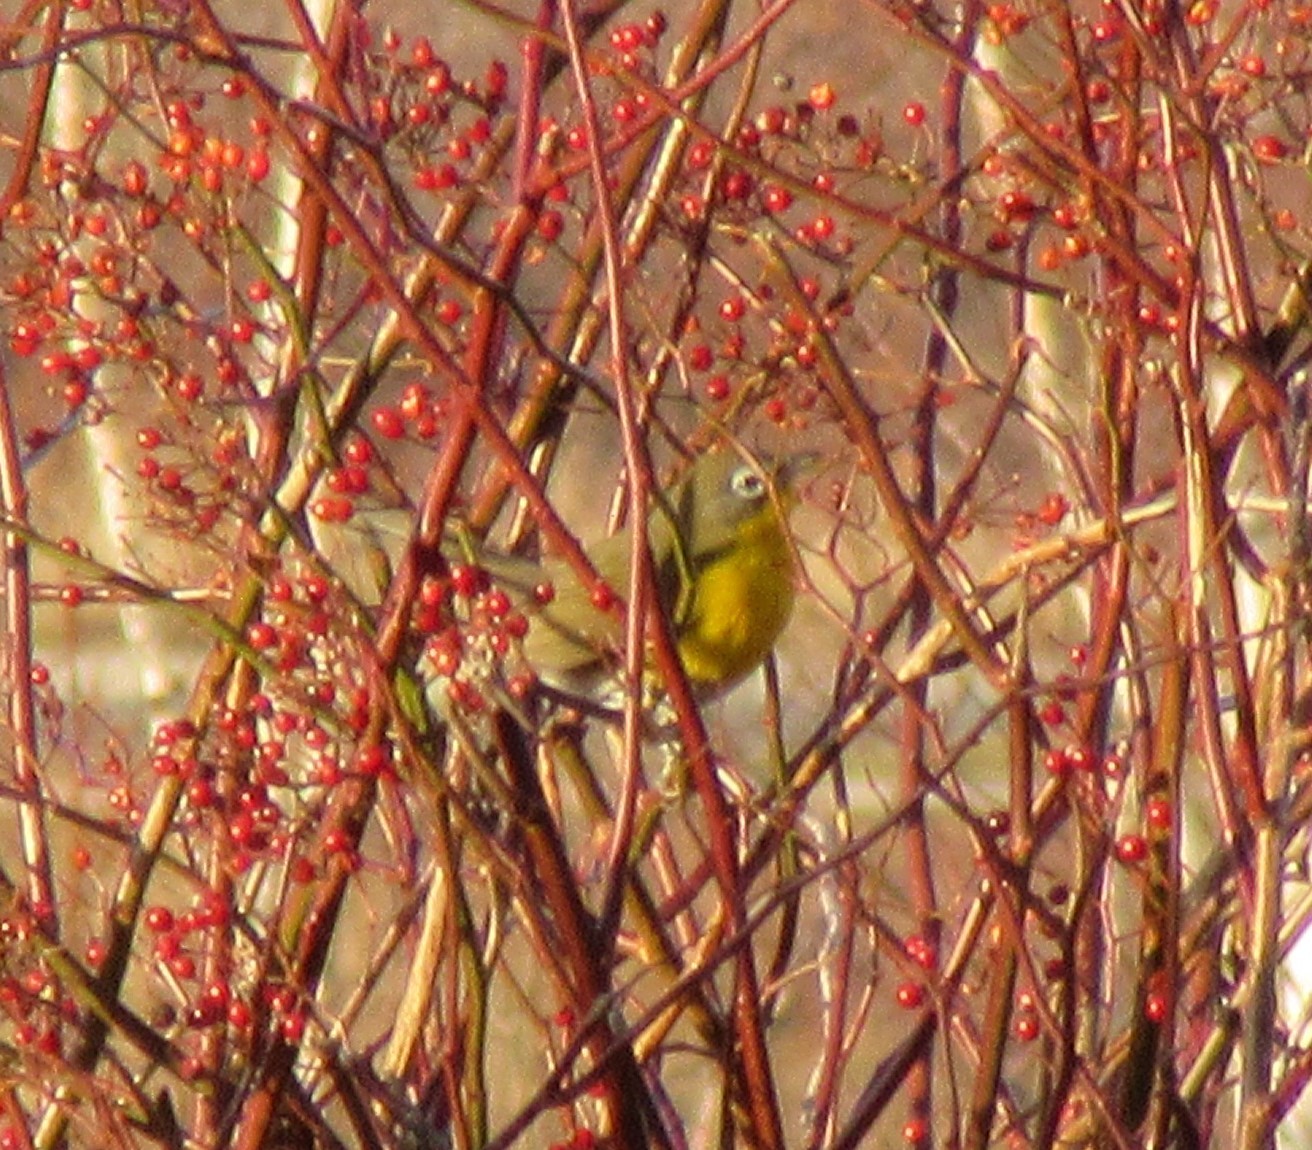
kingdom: Animalia
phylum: Chordata
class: Aves
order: Passeriformes
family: Parulidae
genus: Icteria
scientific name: Icteria virens
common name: Yellow-breasted chat
